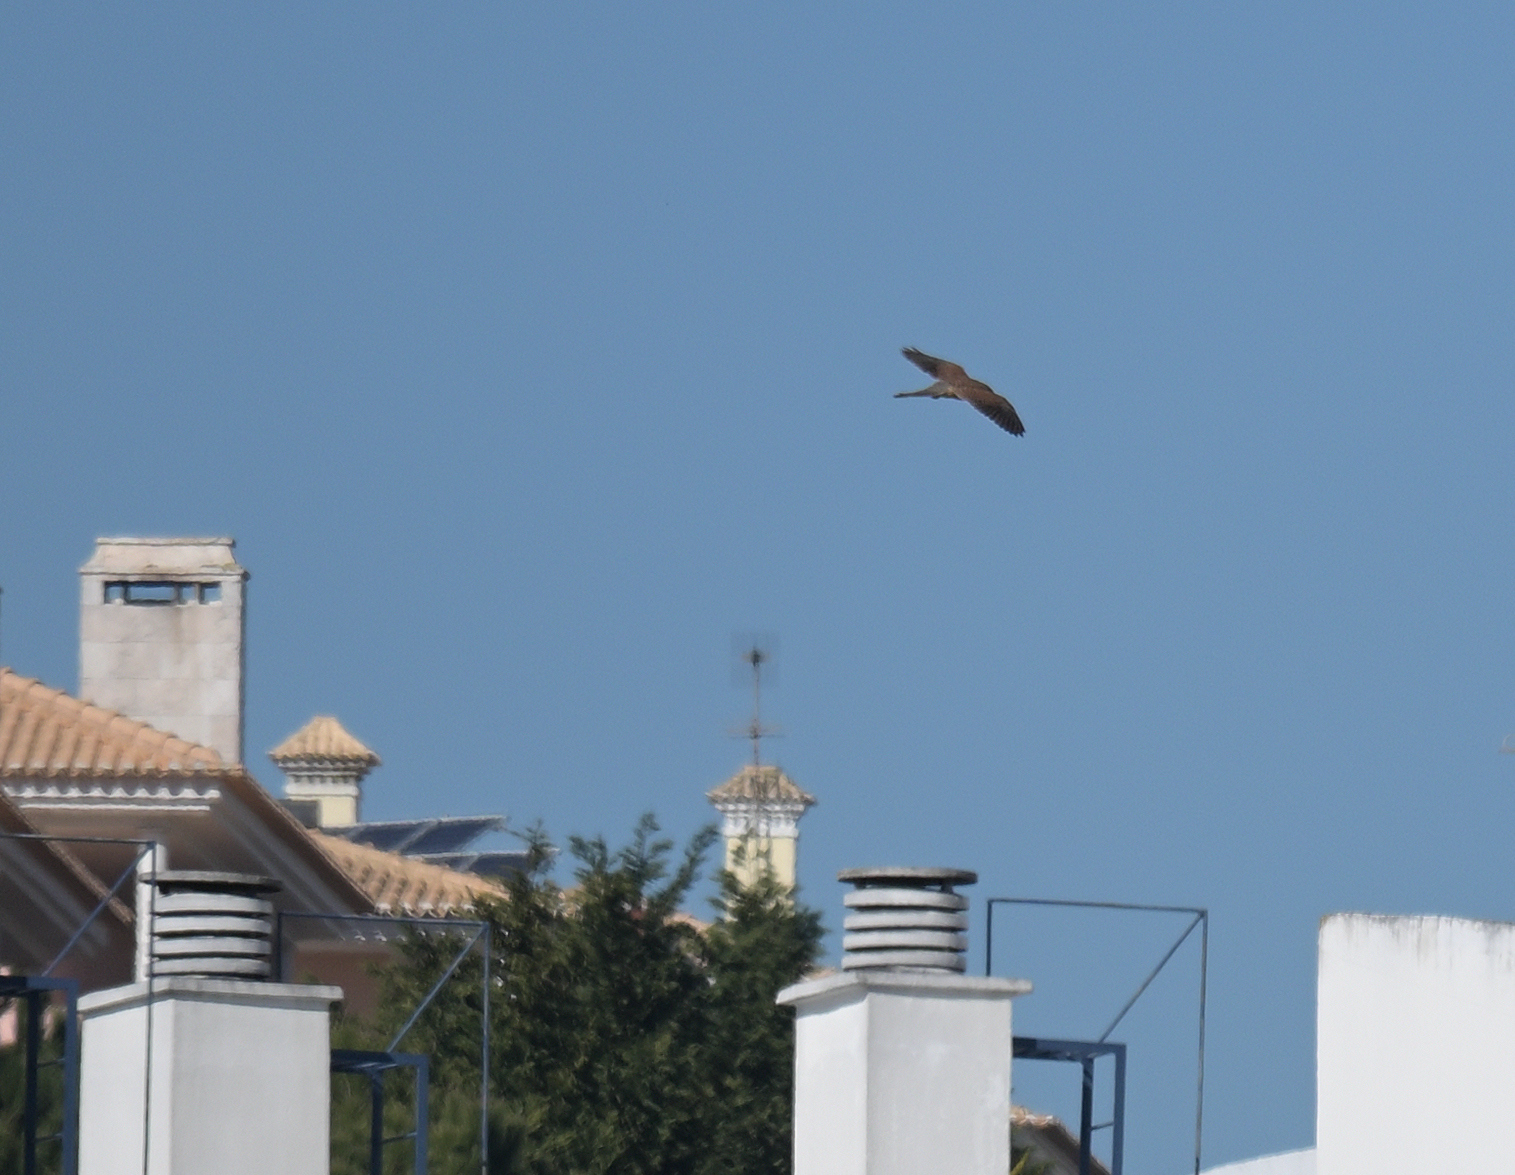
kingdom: Animalia
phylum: Chordata
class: Aves
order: Falconiformes
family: Falconidae
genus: Falco
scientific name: Falco tinnunculus
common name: Common kestrel
